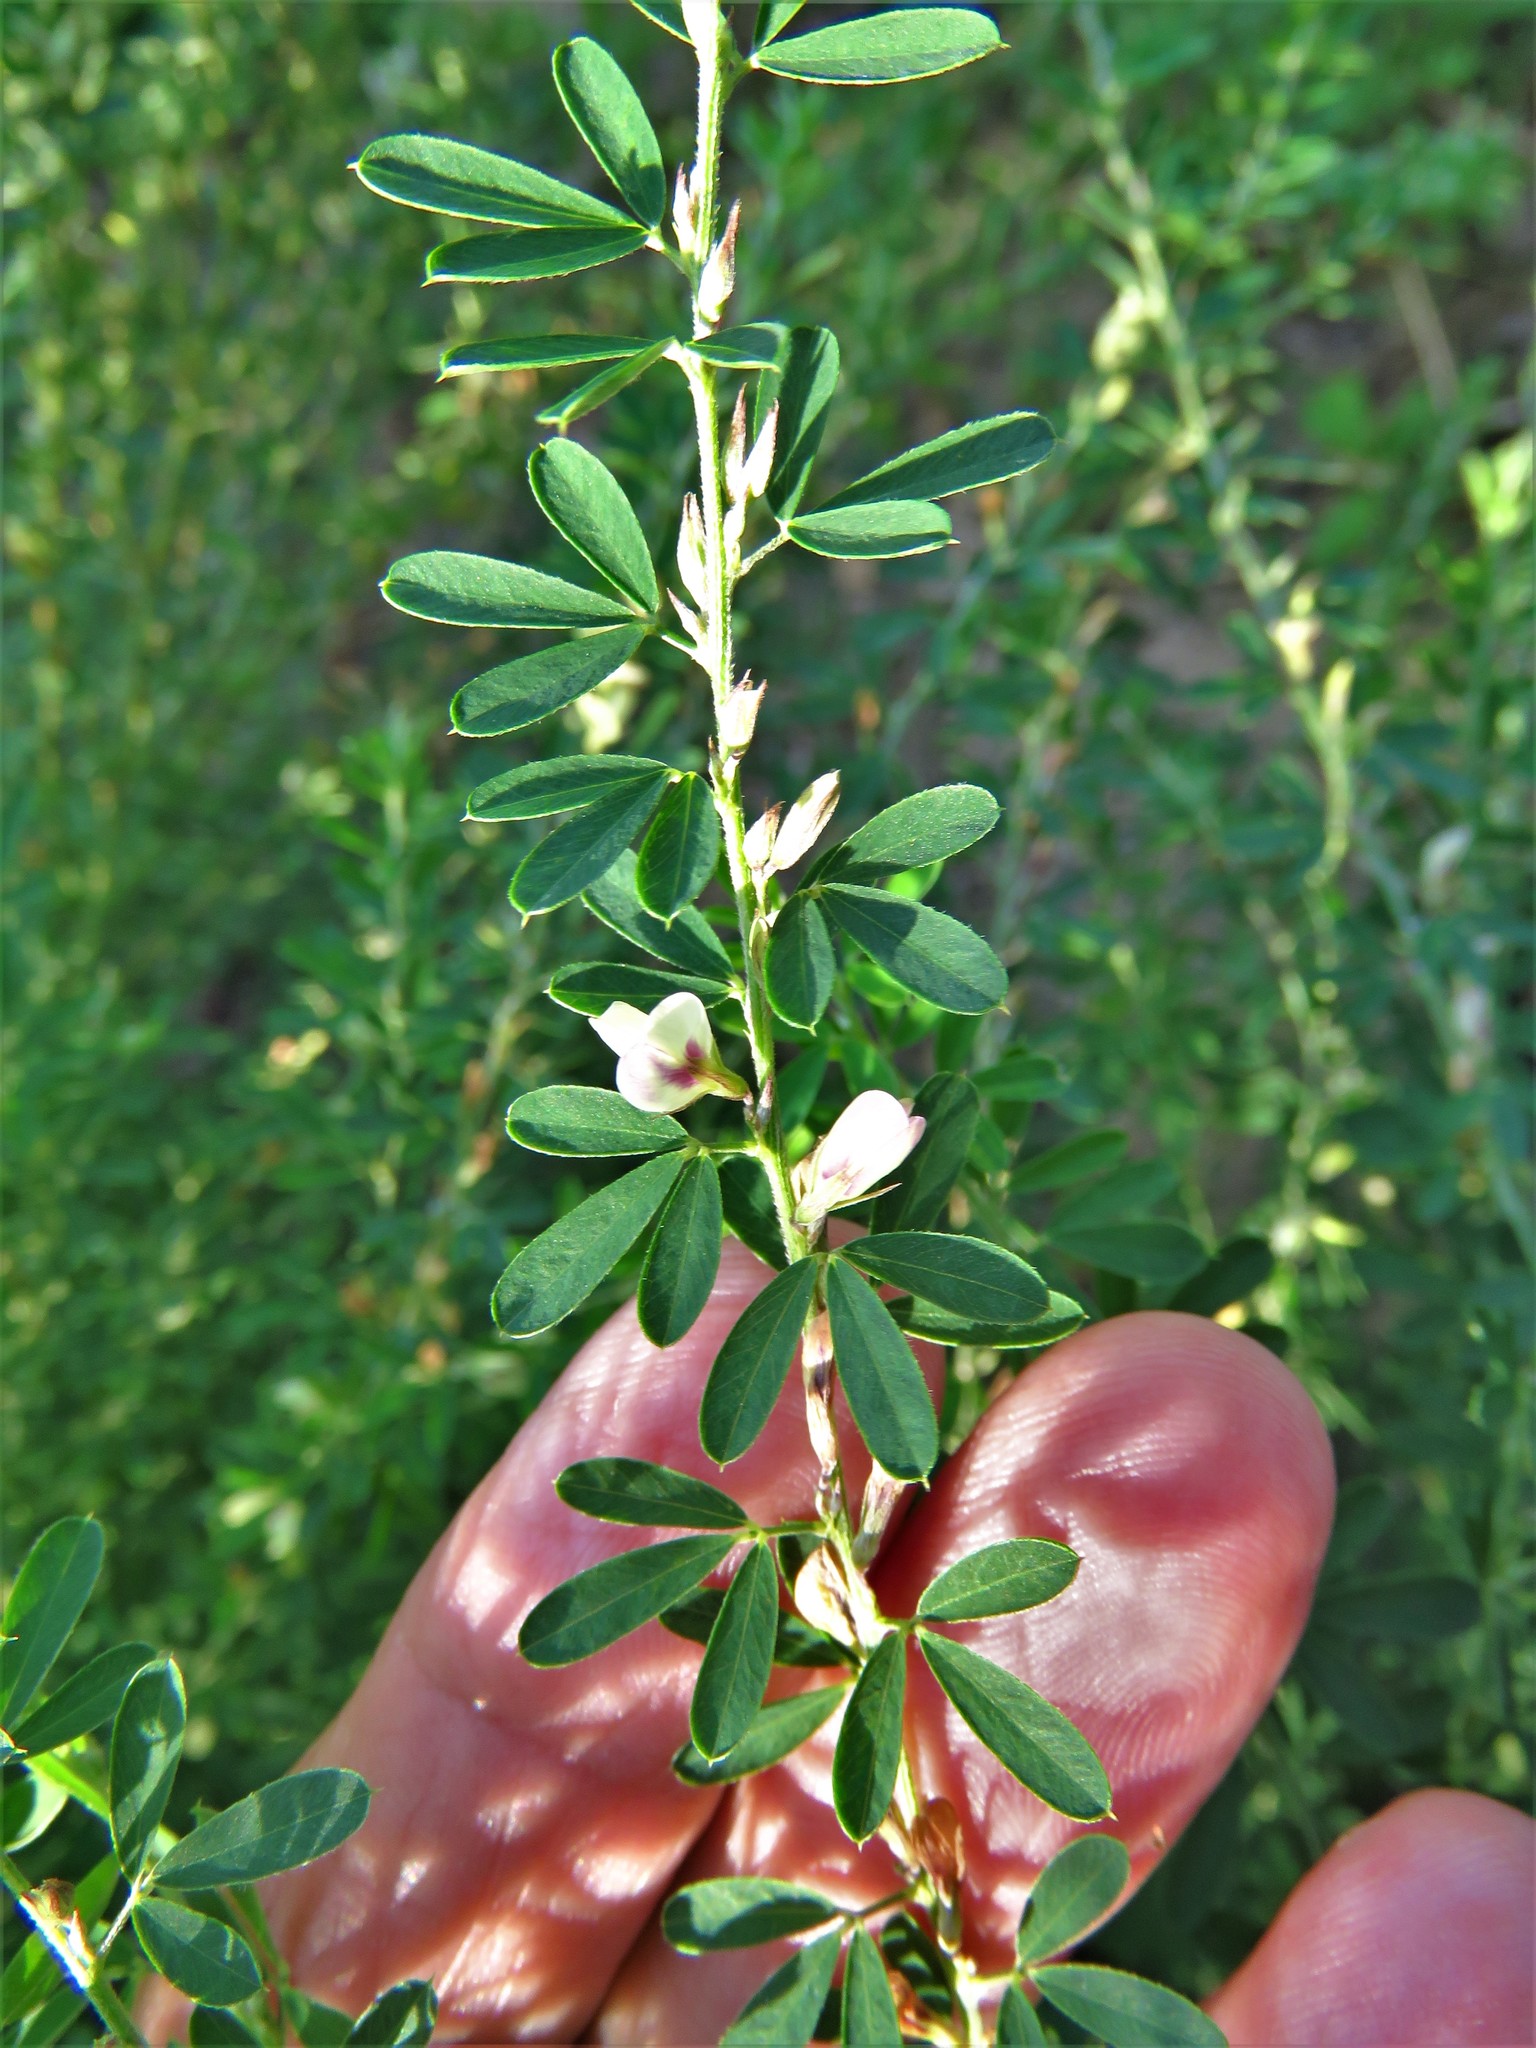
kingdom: Plantae
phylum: Tracheophyta
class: Magnoliopsida
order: Fabales
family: Fabaceae
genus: Lespedeza
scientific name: Lespedeza cuneata
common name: Chinese bush-clover
